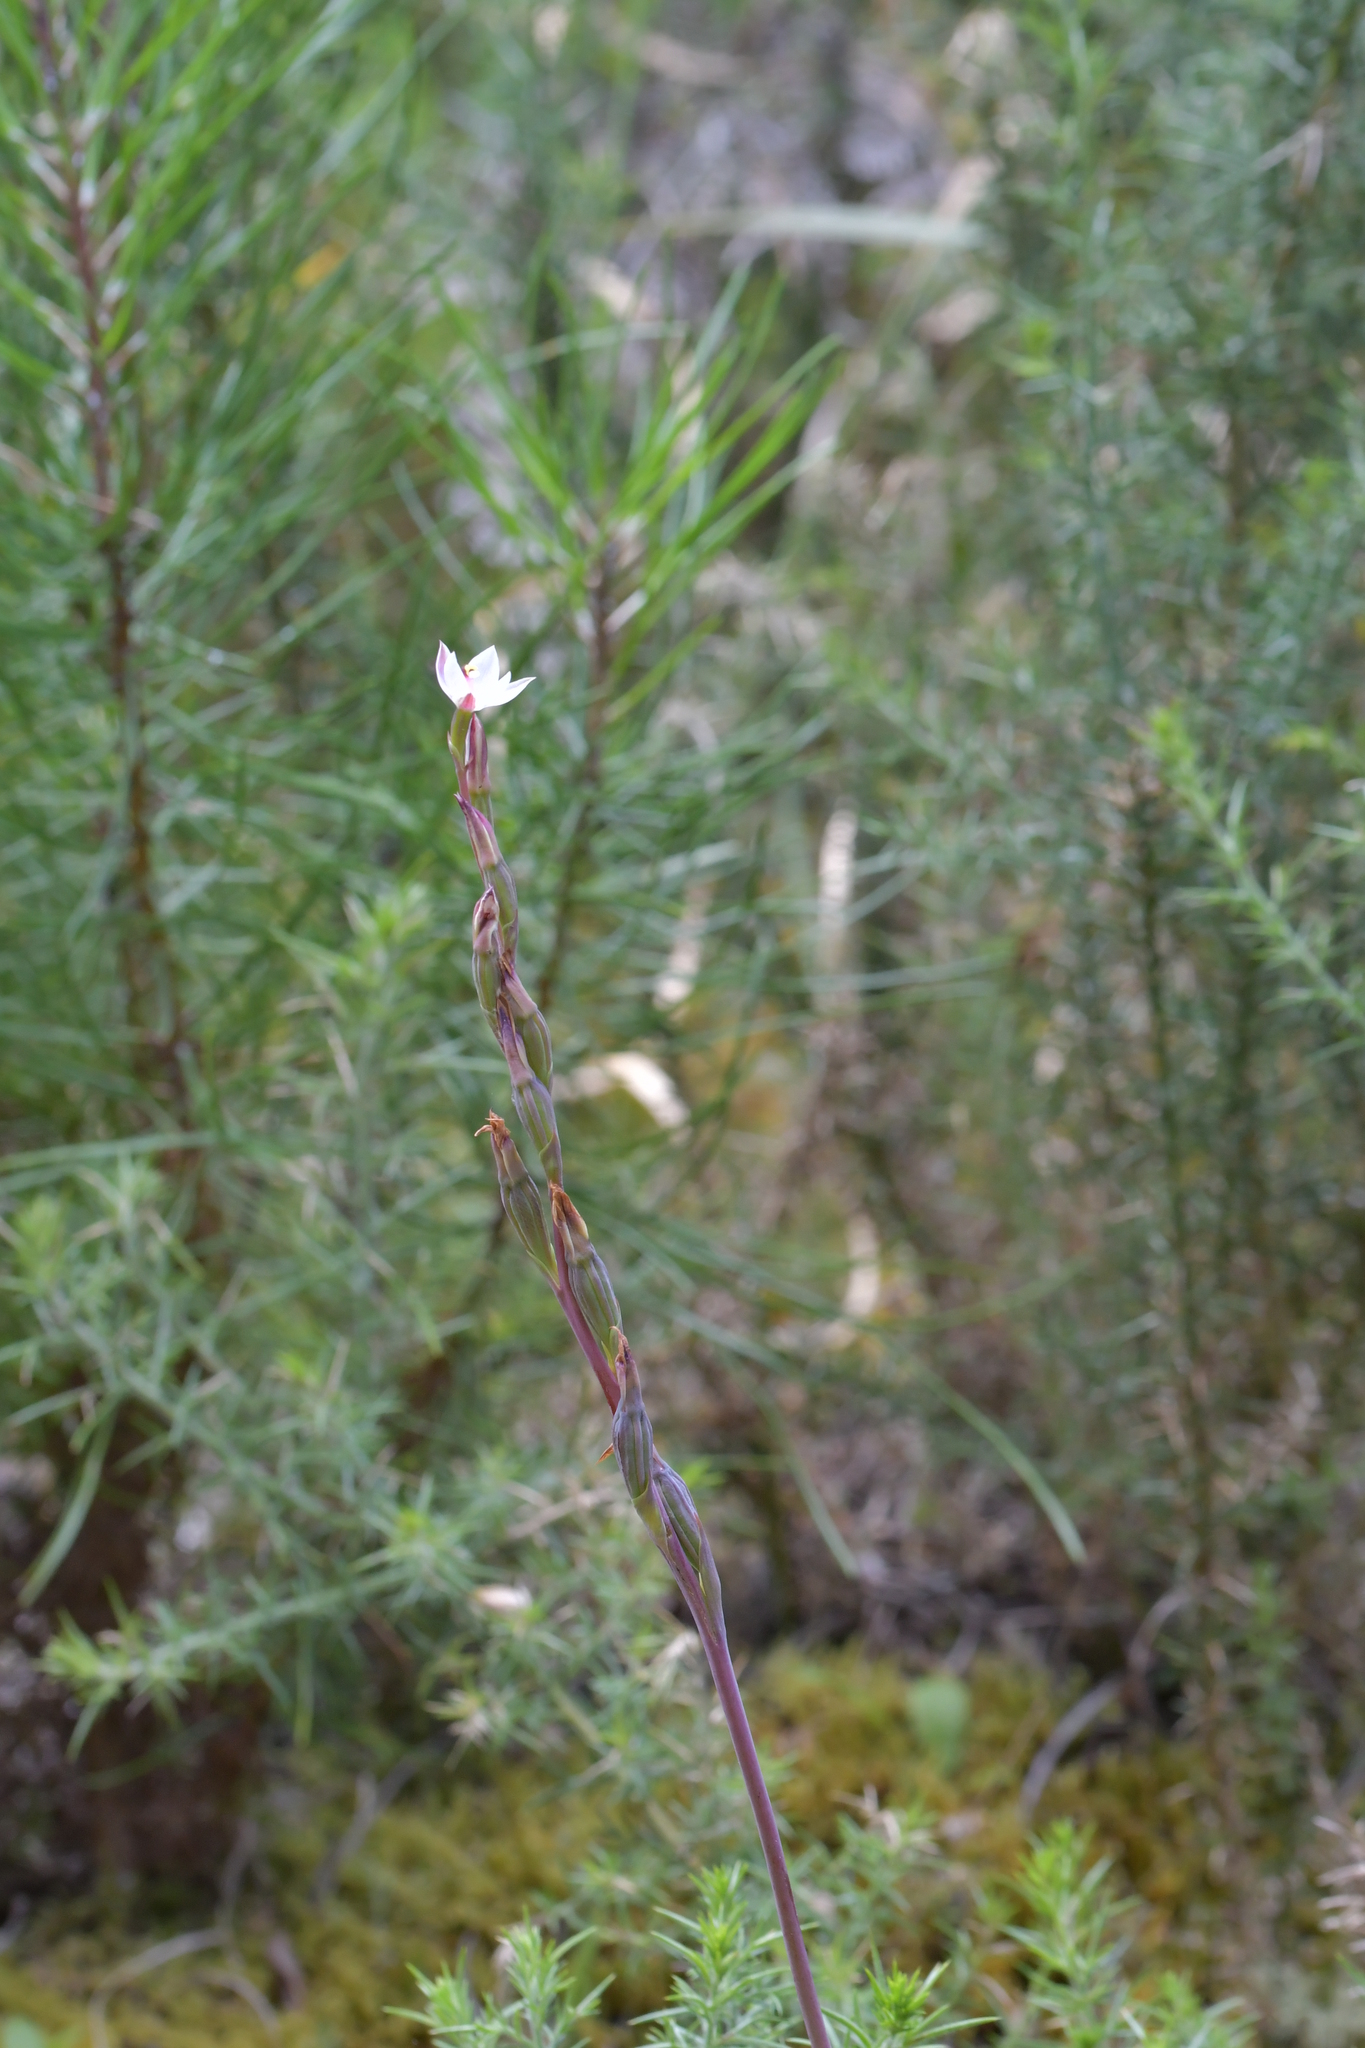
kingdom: Plantae
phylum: Tracheophyta
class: Liliopsida
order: Asparagales
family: Orchidaceae
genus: Thelymitra
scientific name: Thelymitra longifolia
